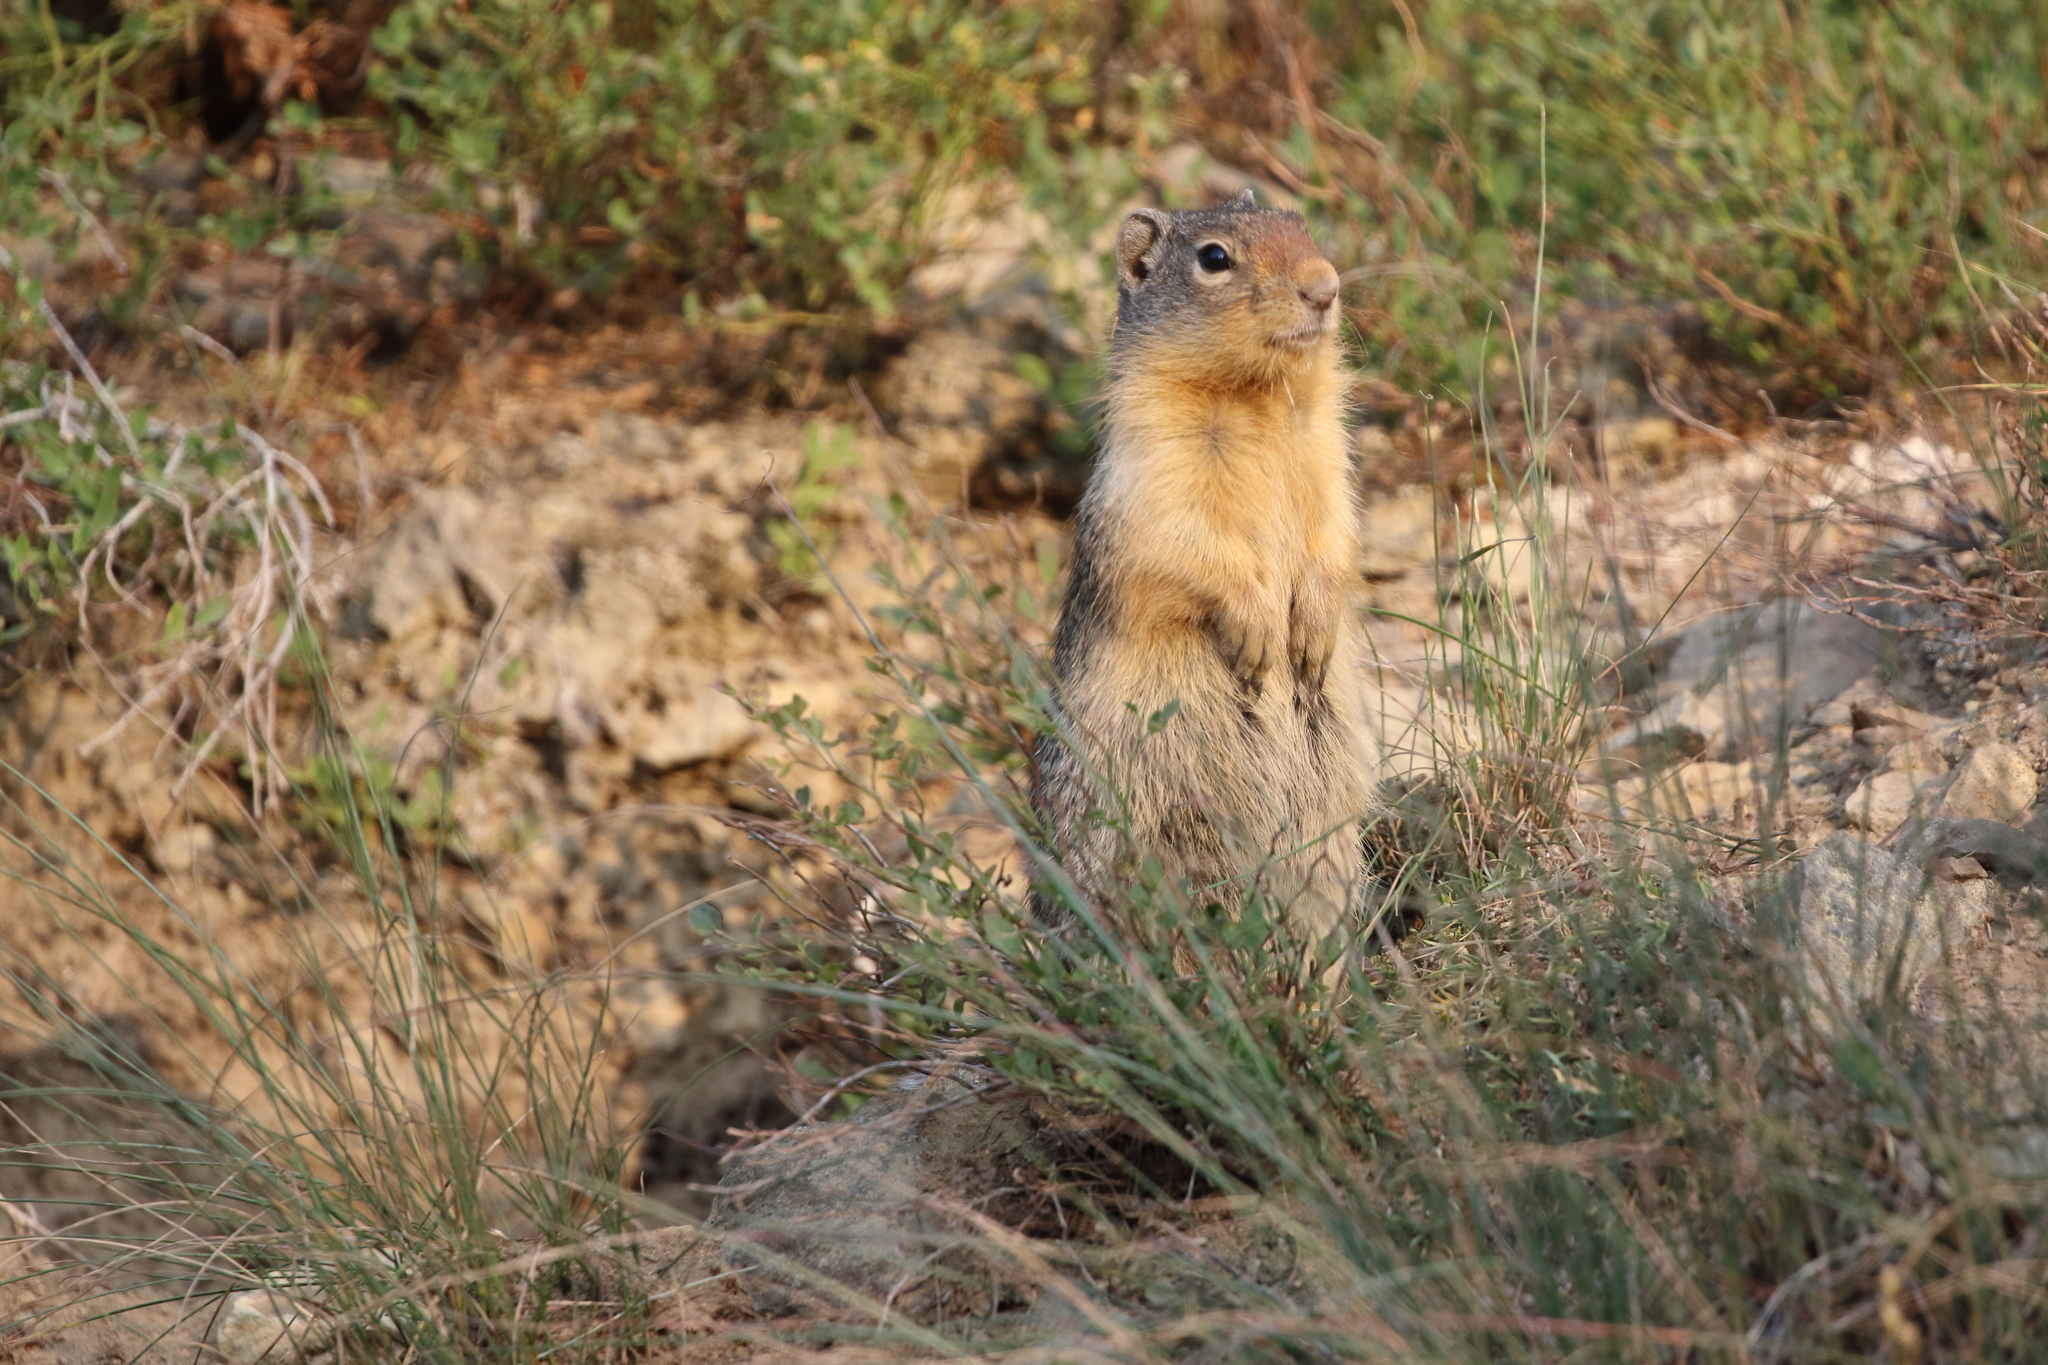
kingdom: Animalia
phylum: Chordata
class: Mammalia
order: Rodentia
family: Sciuridae
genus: Urocitellus
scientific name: Urocitellus columbianus
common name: Columbian ground squirrel
